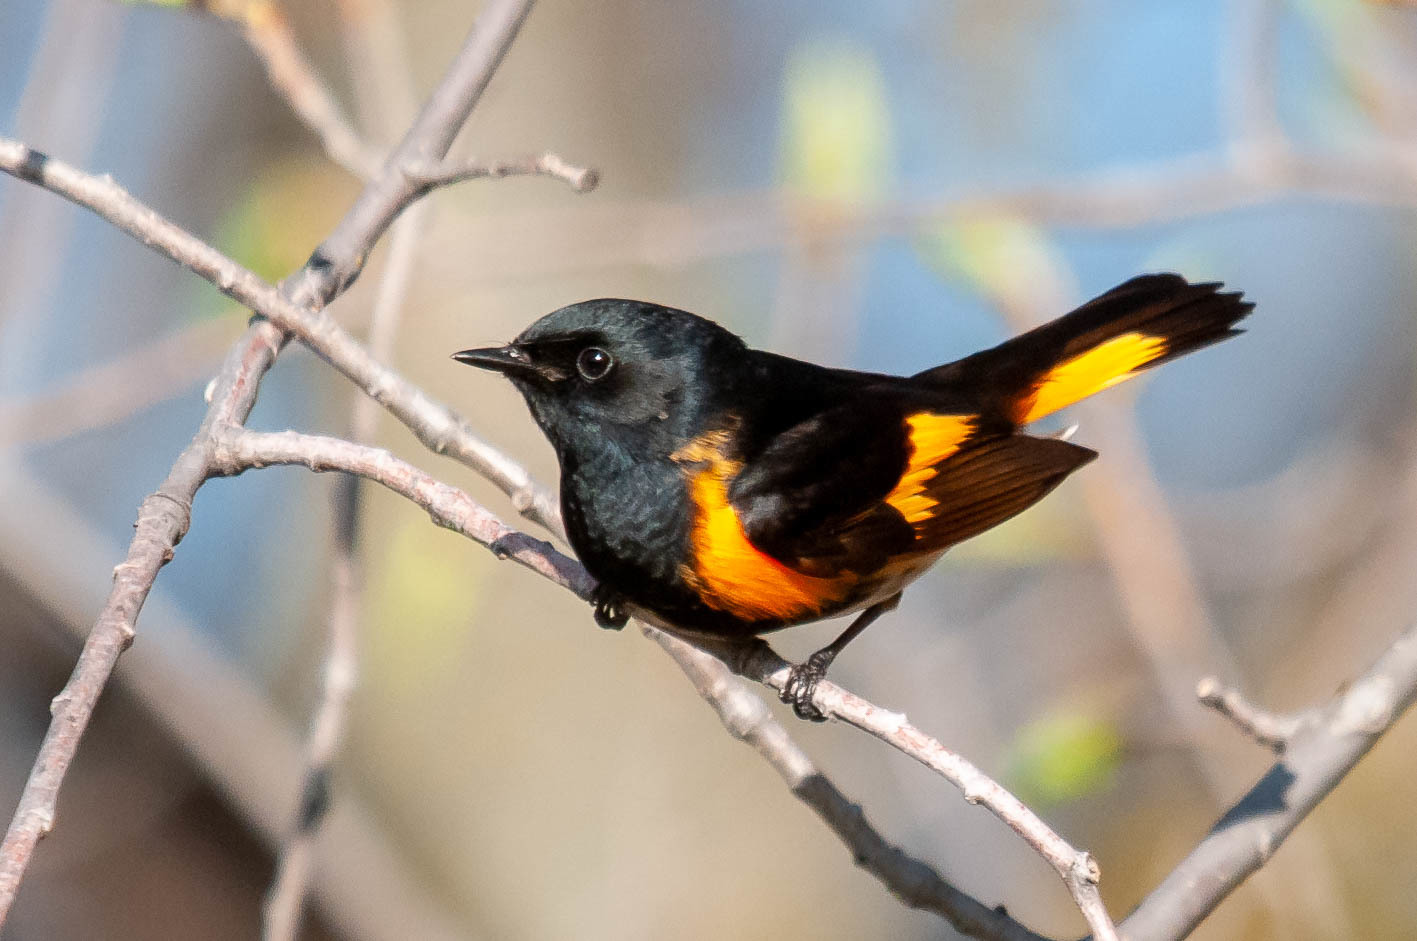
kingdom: Animalia
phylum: Chordata
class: Aves
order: Passeriformes
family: Parulidae
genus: Setophaga
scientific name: Setophaga ruticilla
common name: American redstart
